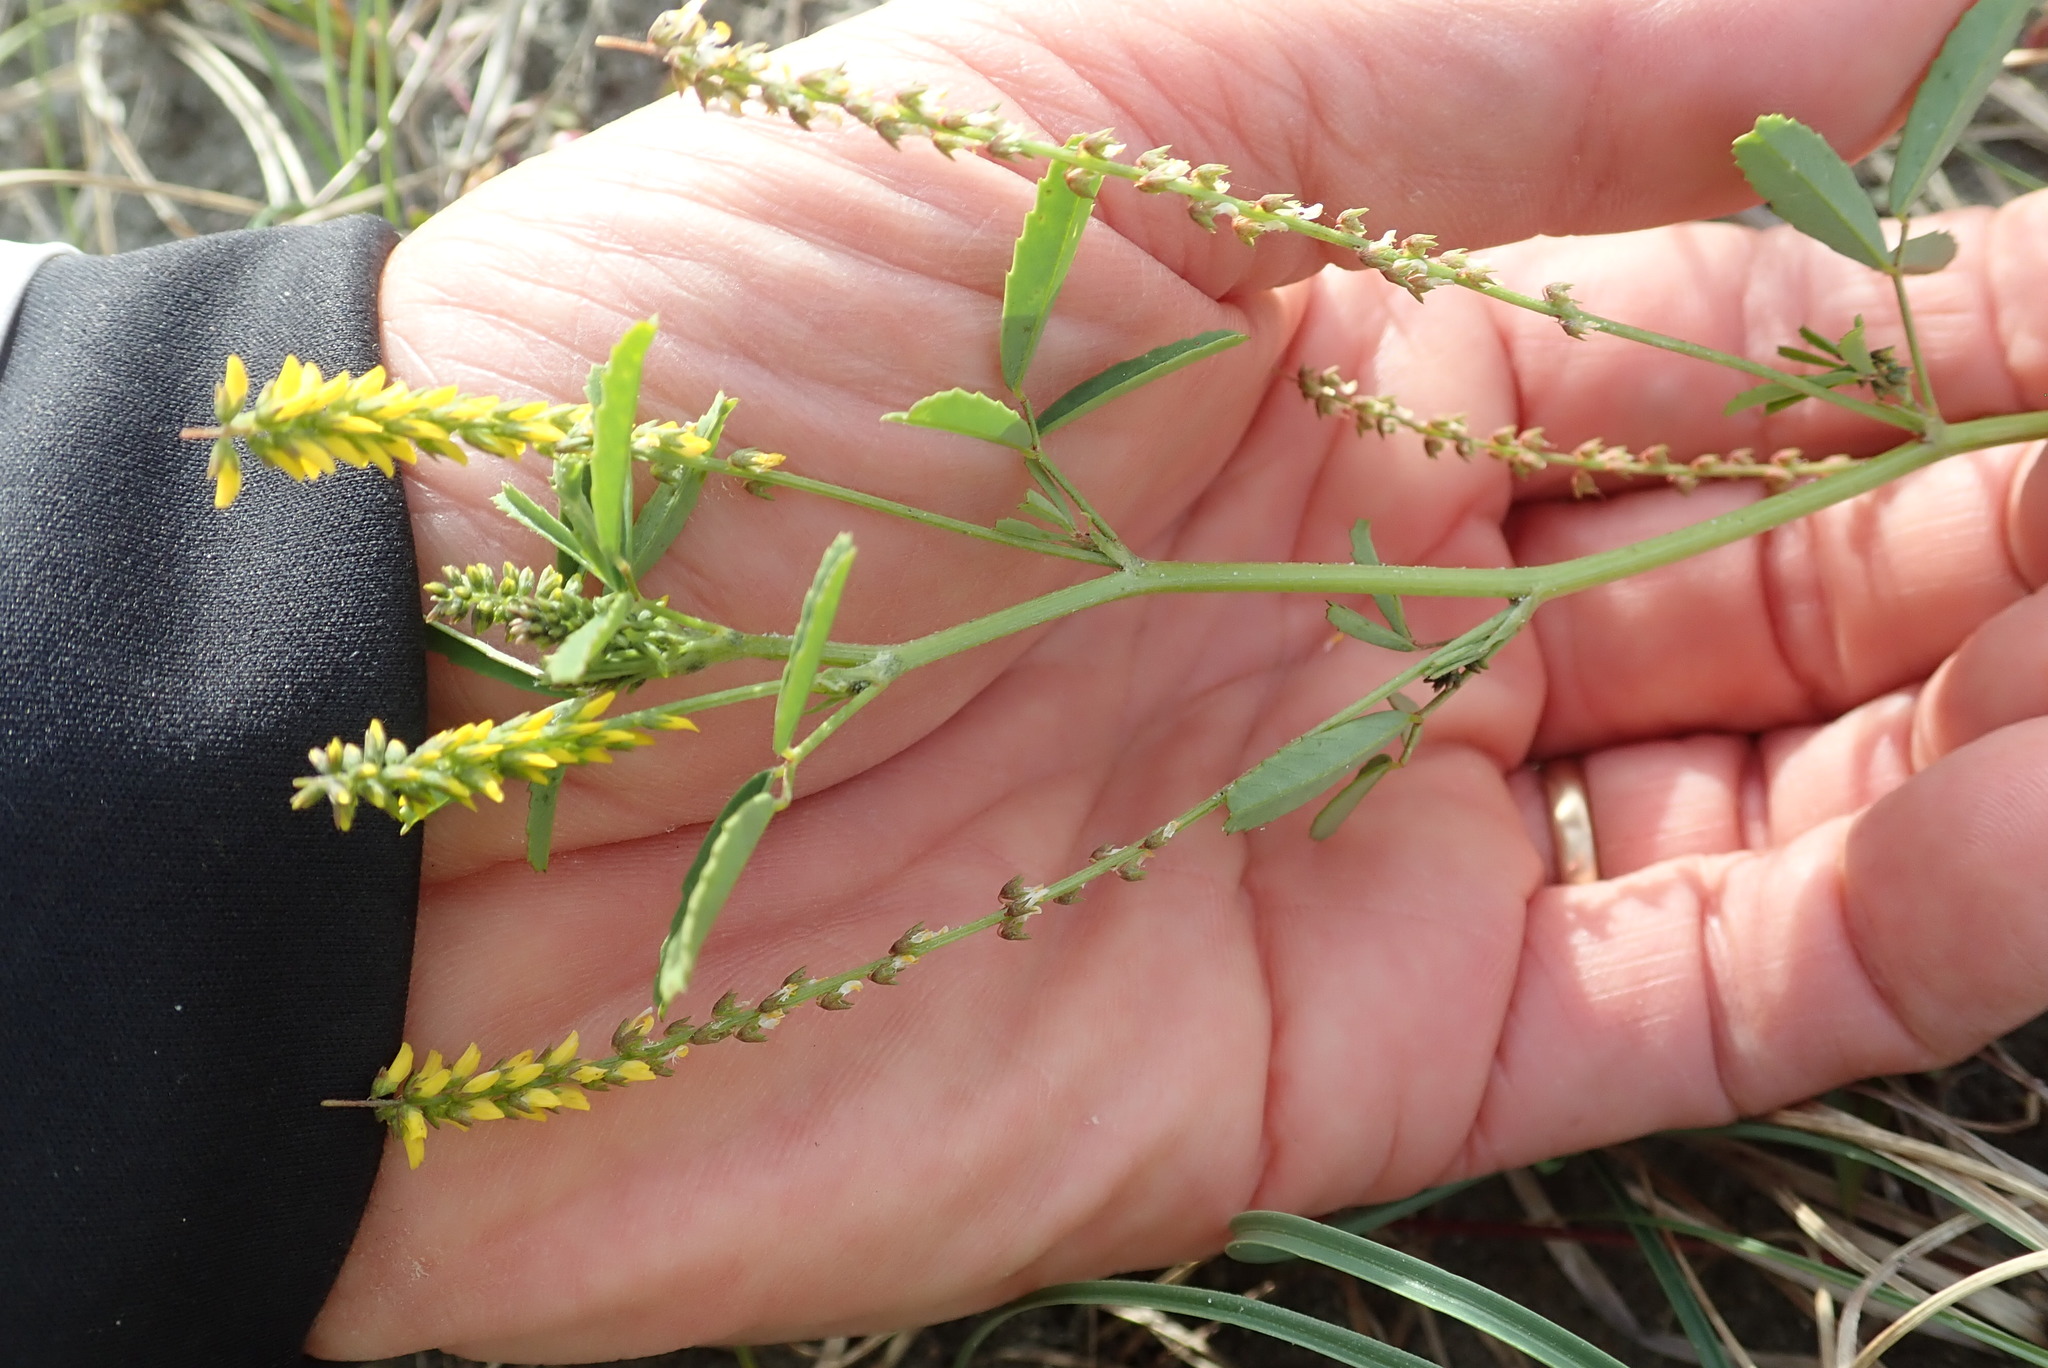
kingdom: Plantae
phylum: Tracheophyta
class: Magnoliopsida
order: Fabales
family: Fabaceae
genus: Melilotus
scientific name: Melilotus indicus
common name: Small melilot
